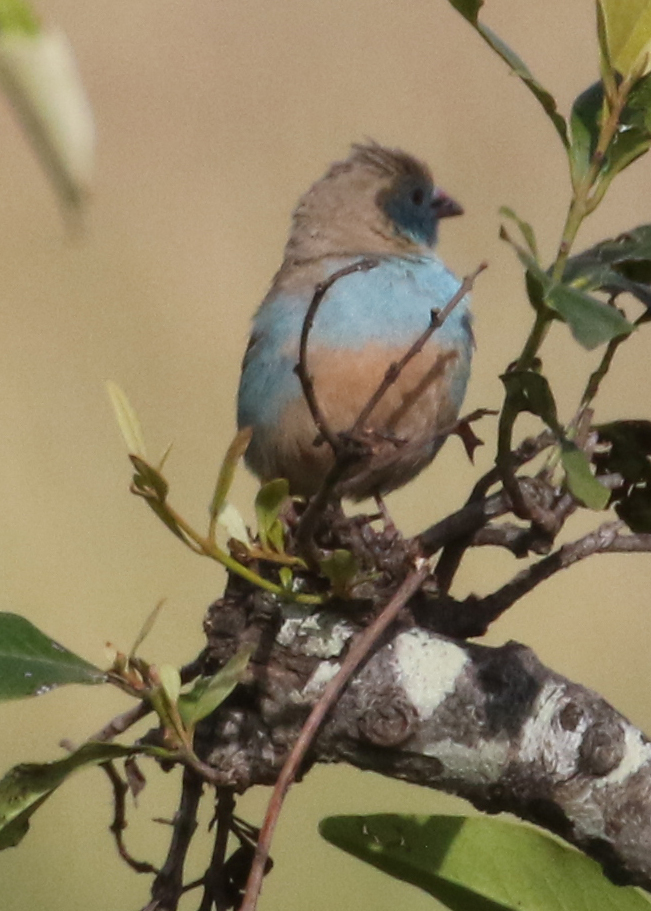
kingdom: Animalia
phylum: Chordata
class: Aves
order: Passeriformes
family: Estrildidae
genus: Uraeginthus
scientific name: Uraeginthus bengalus
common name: Red-cheeked cordon-bleu
